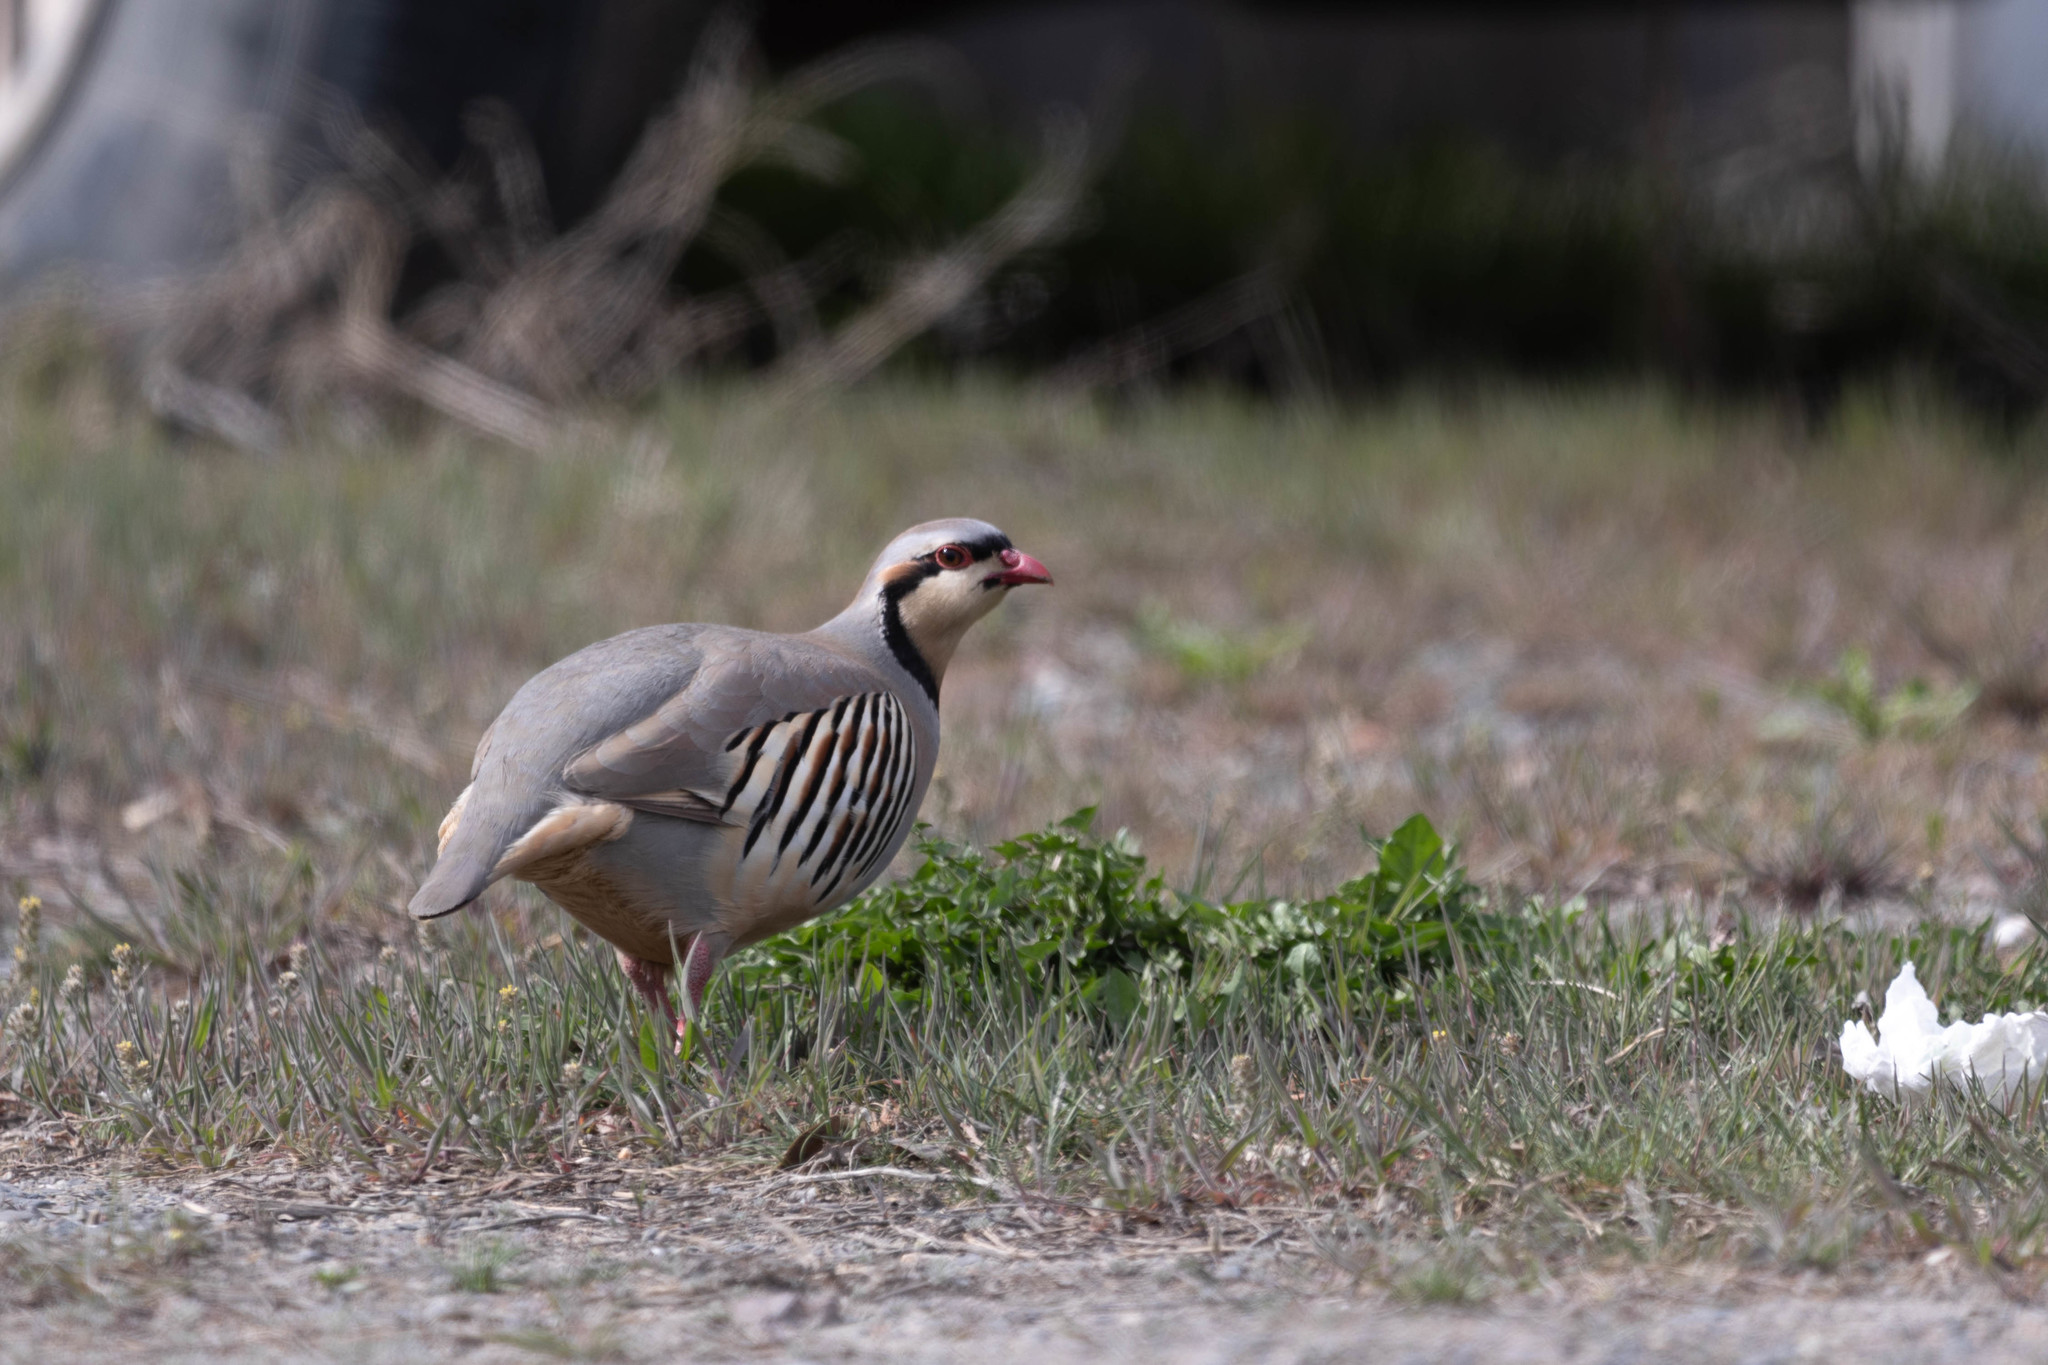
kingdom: Animalia
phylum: Chordata
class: Aves
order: Galliformes
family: Phasianidae
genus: Alectoris
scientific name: Alectoris chukar
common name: Chukar
